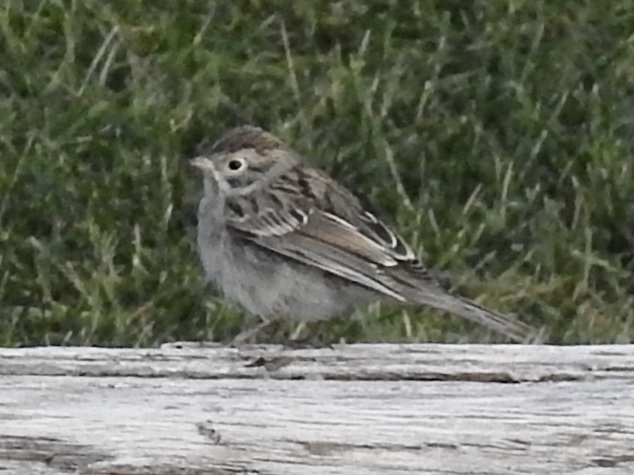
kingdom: Animalia
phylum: Chordata
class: Aves
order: Passeriformes
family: Passerellidae
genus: Spizella
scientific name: Spizella passerina
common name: Chipping sparrow
